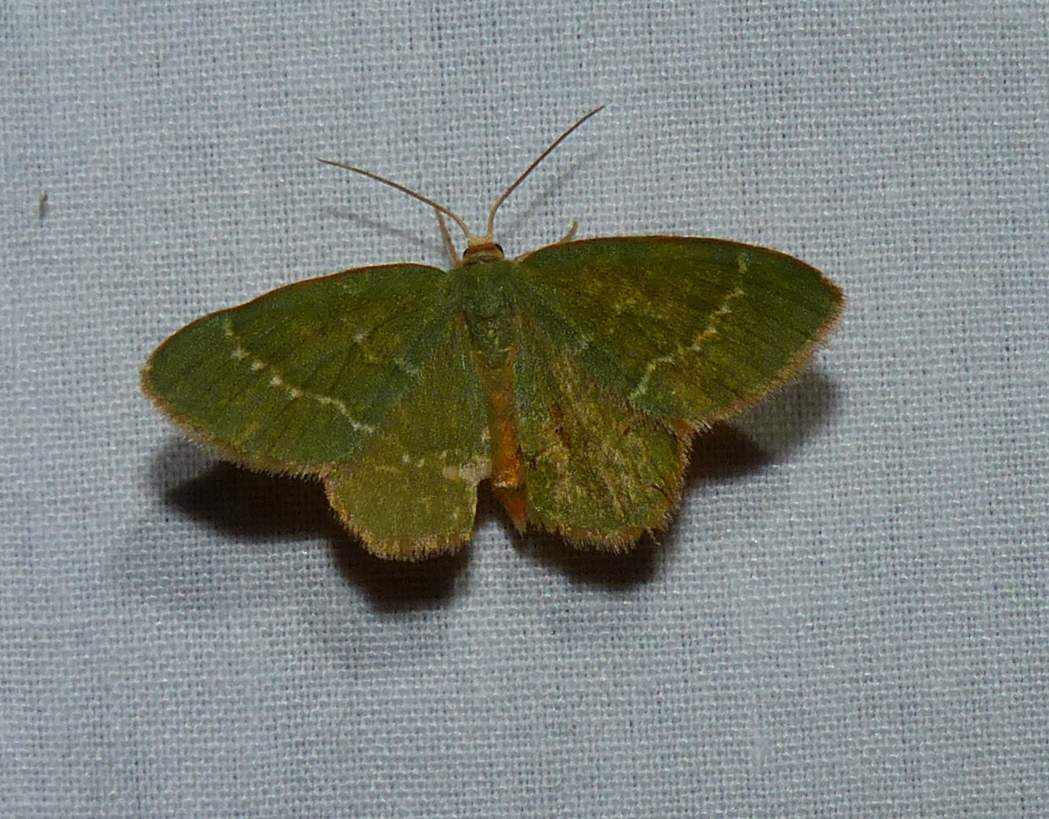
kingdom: Animalia
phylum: Arthropoda
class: Insecta
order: Lepidoptera
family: Geometridae
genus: Thalera
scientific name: Thalera pistasciaria
